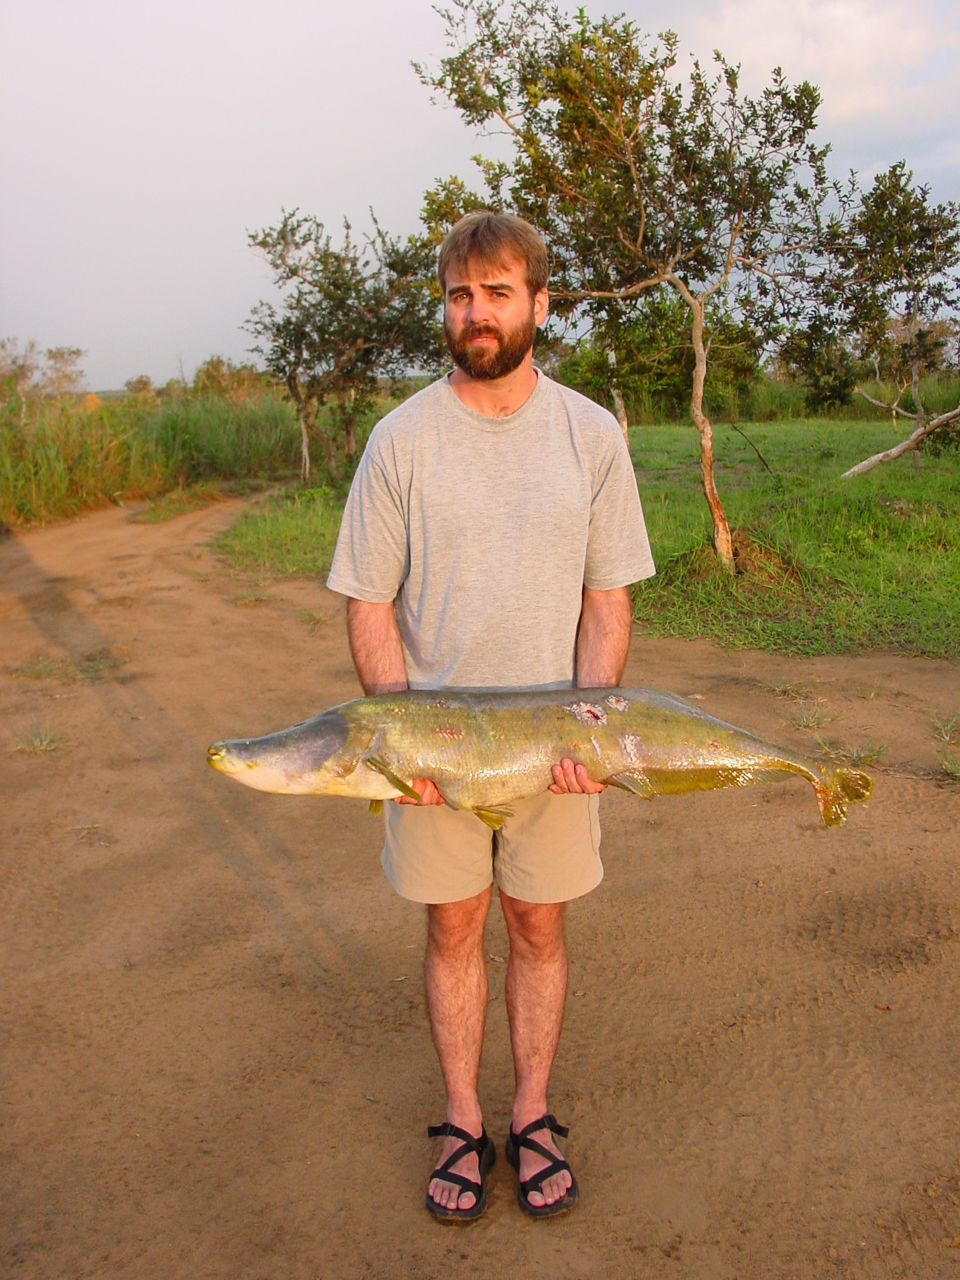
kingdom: Animalia
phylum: Chordata
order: Osteoglossiformes
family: Mormyridae
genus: Mormyrops
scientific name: Mormyrops anguilloides
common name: Cornish jack
